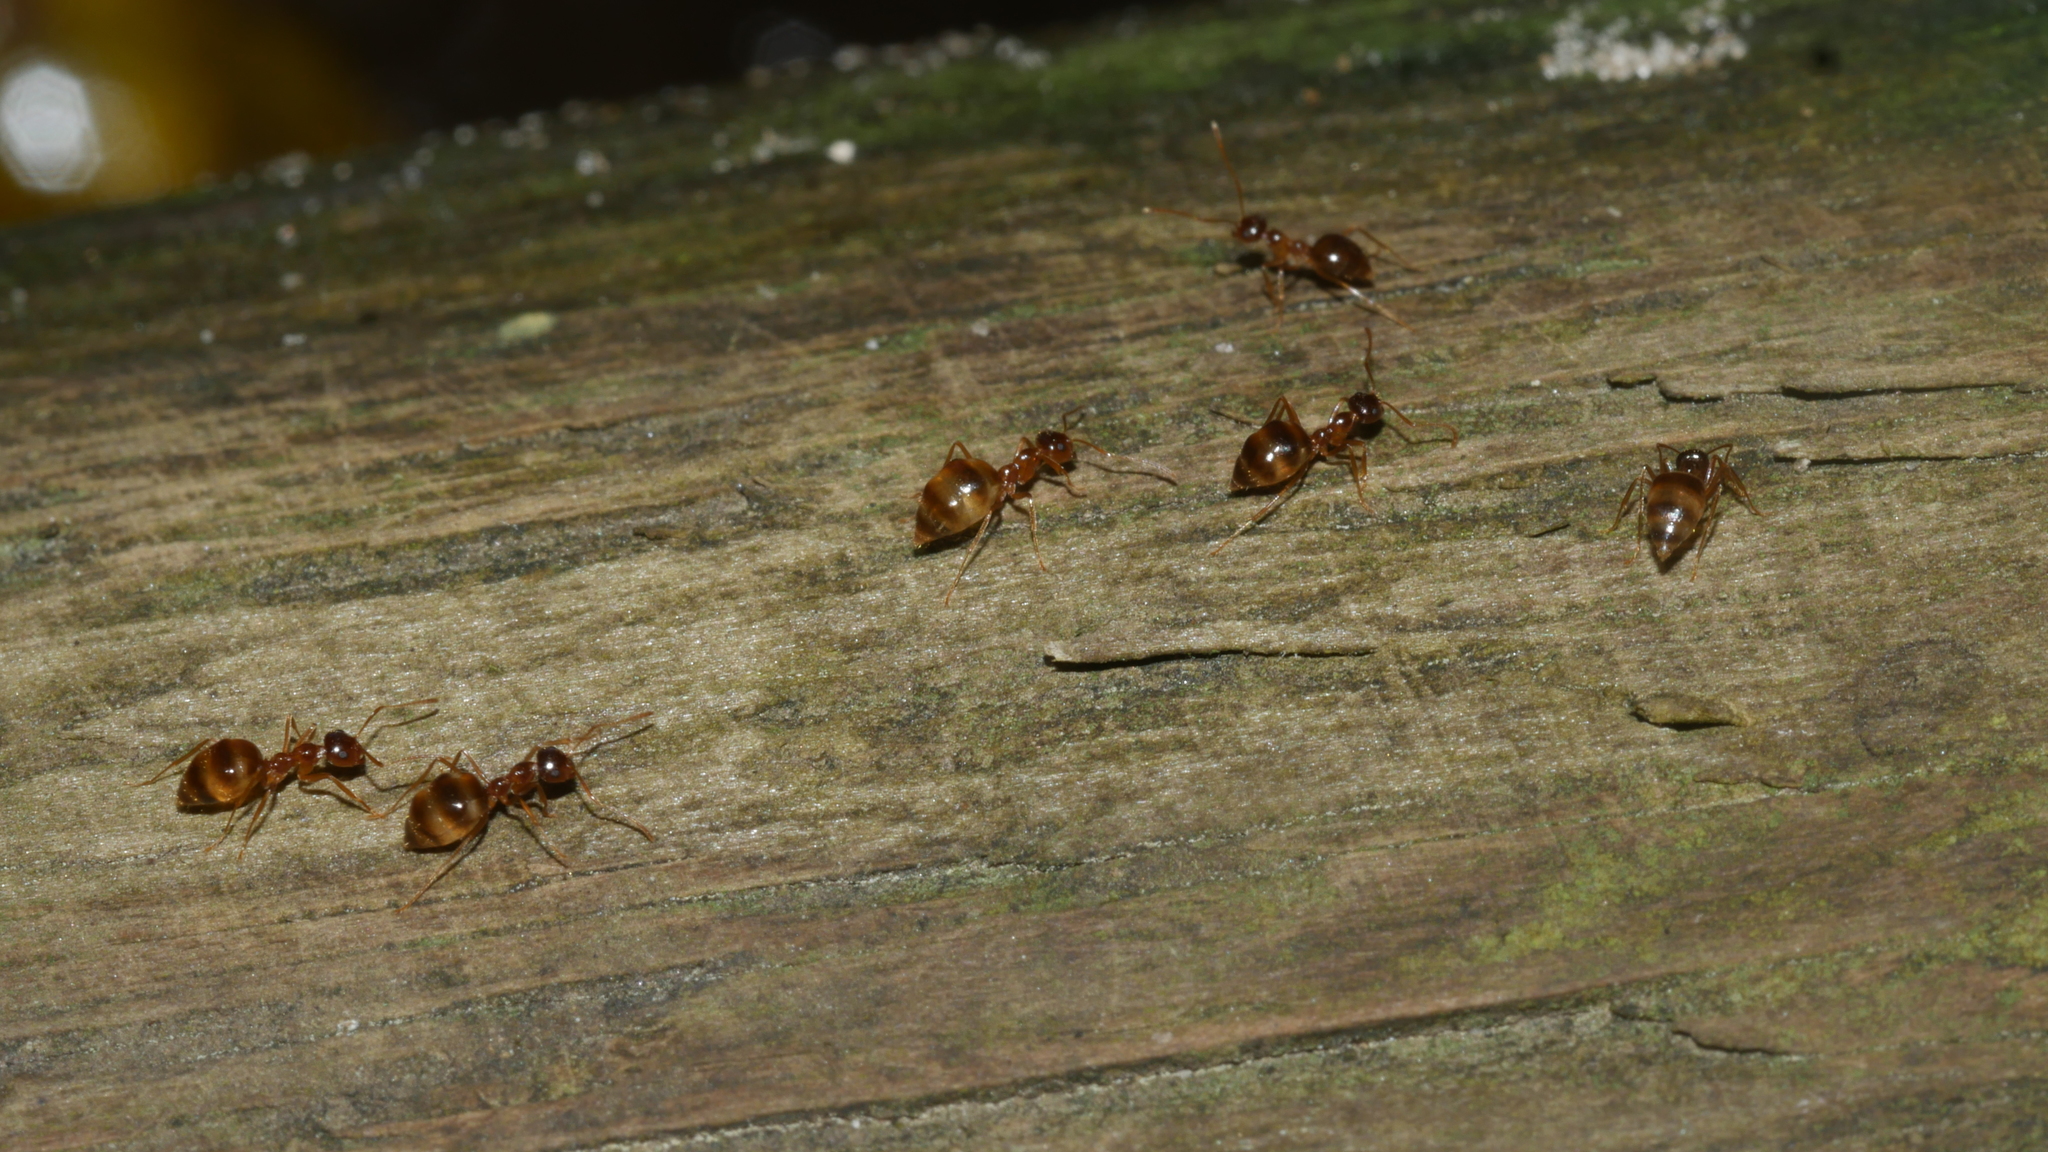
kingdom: Animalia
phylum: Arthropoda
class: Insecta
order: Hymenoptera
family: Formicidae
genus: Prenolepis
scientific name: Prenolepis imparis
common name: Small honey ant
